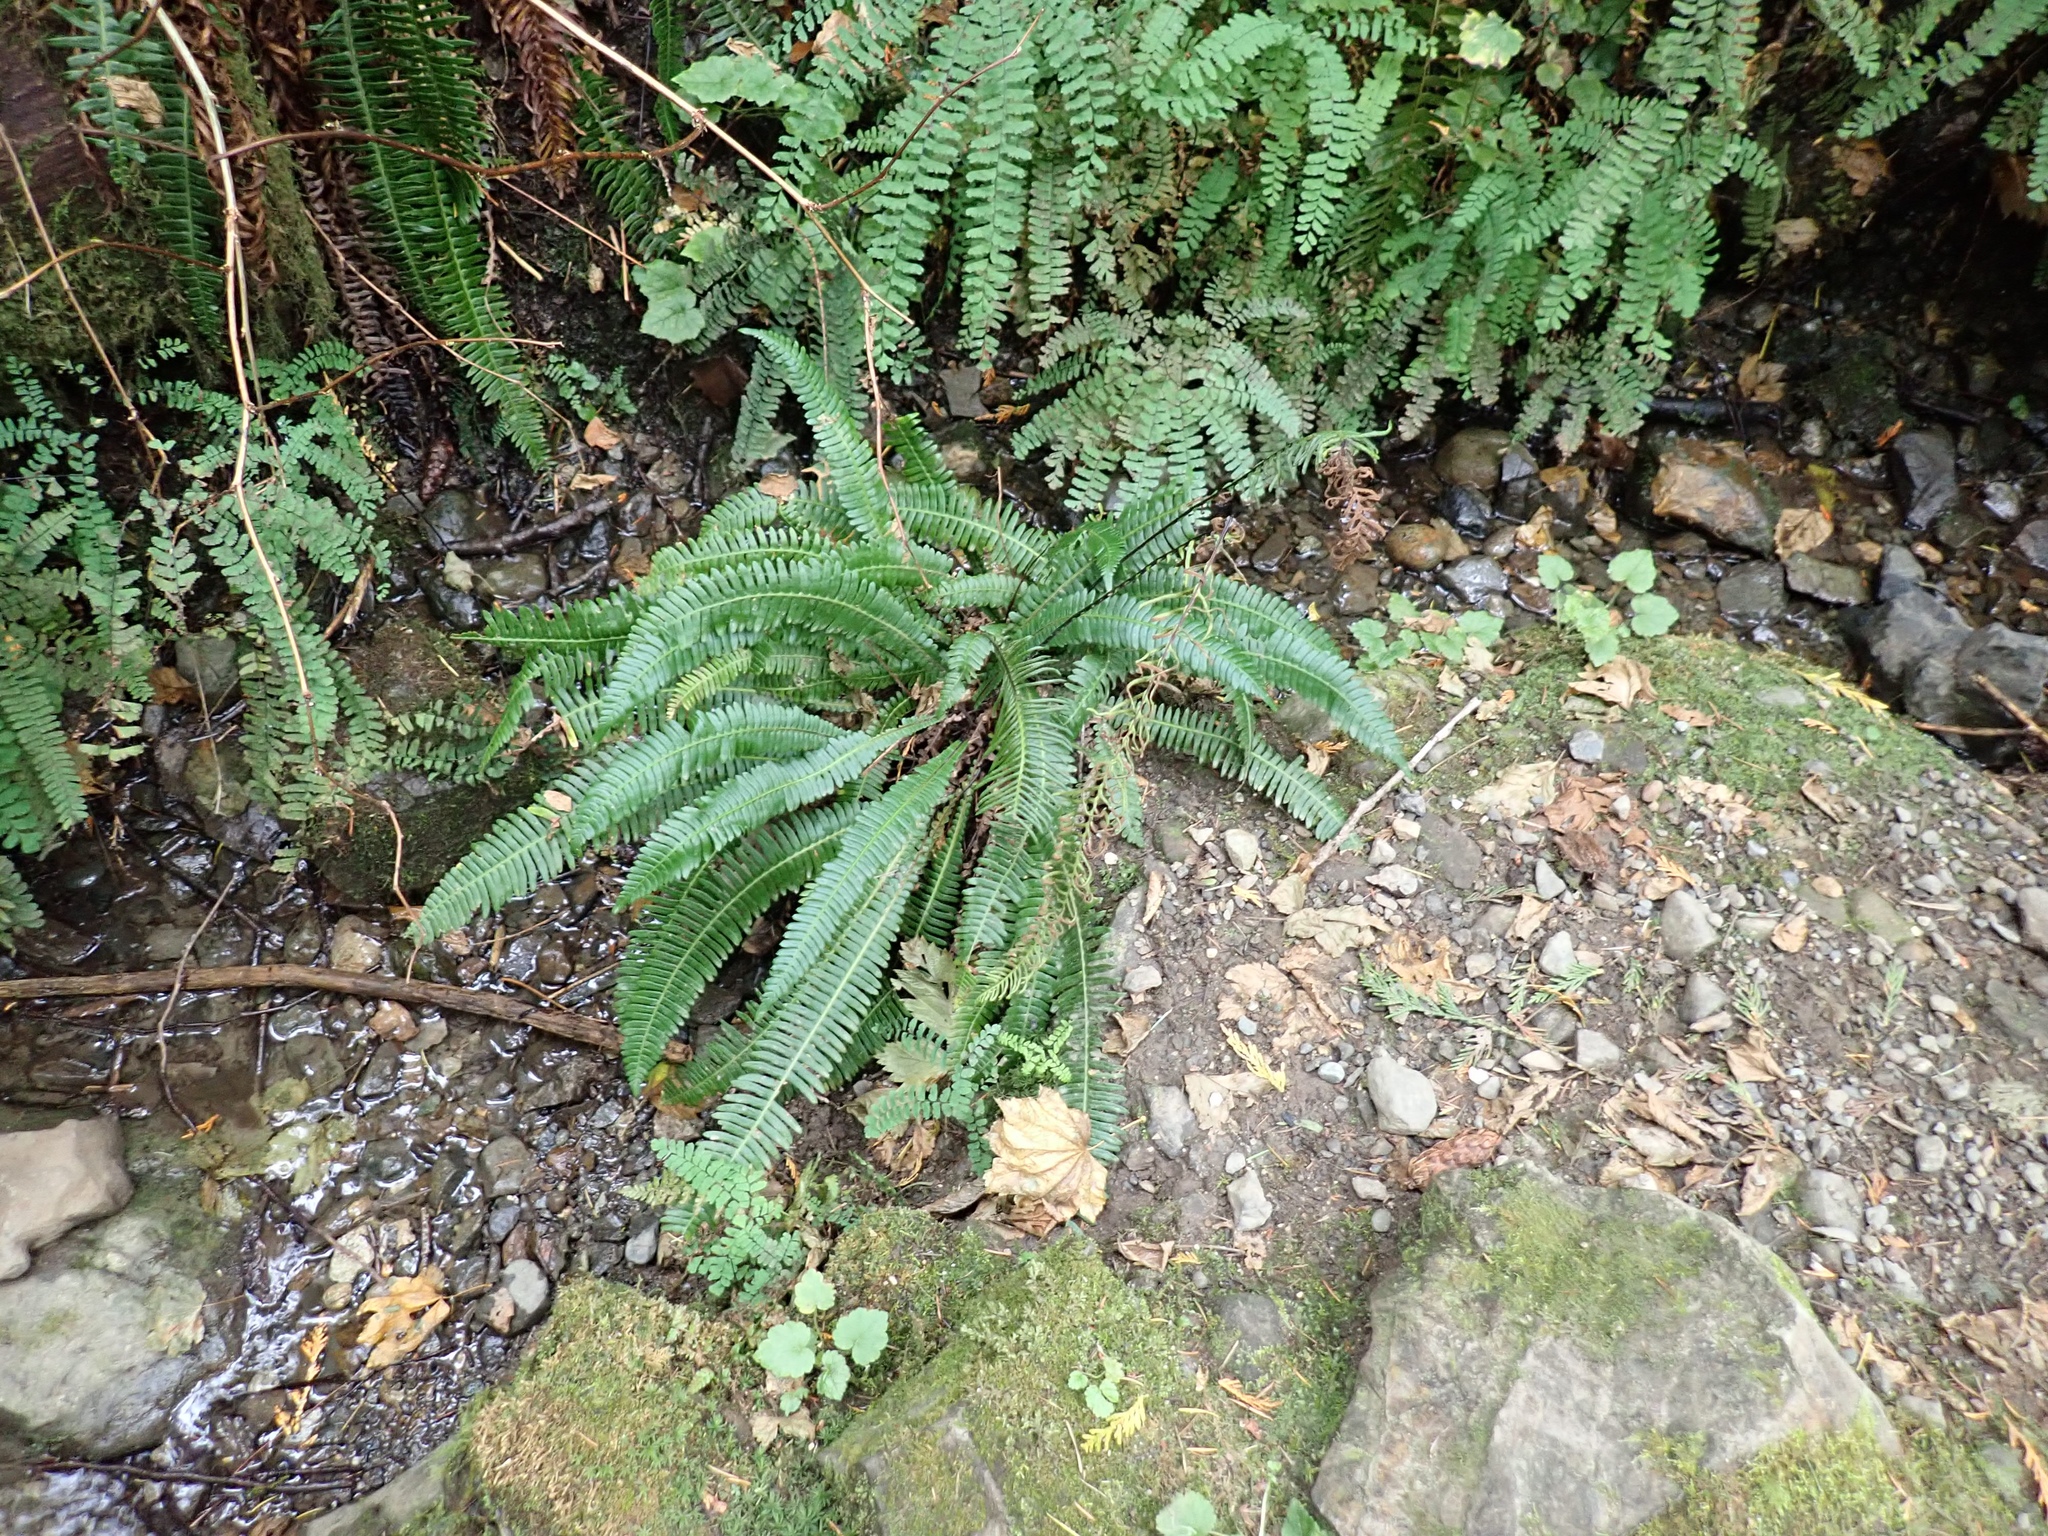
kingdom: Plantae
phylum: Tracheophyta
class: Polypodiopsida
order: Polypodiales
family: Blechnaceae
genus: Struthiopteris
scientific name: Struthiopteris spicant
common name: Deer fern
